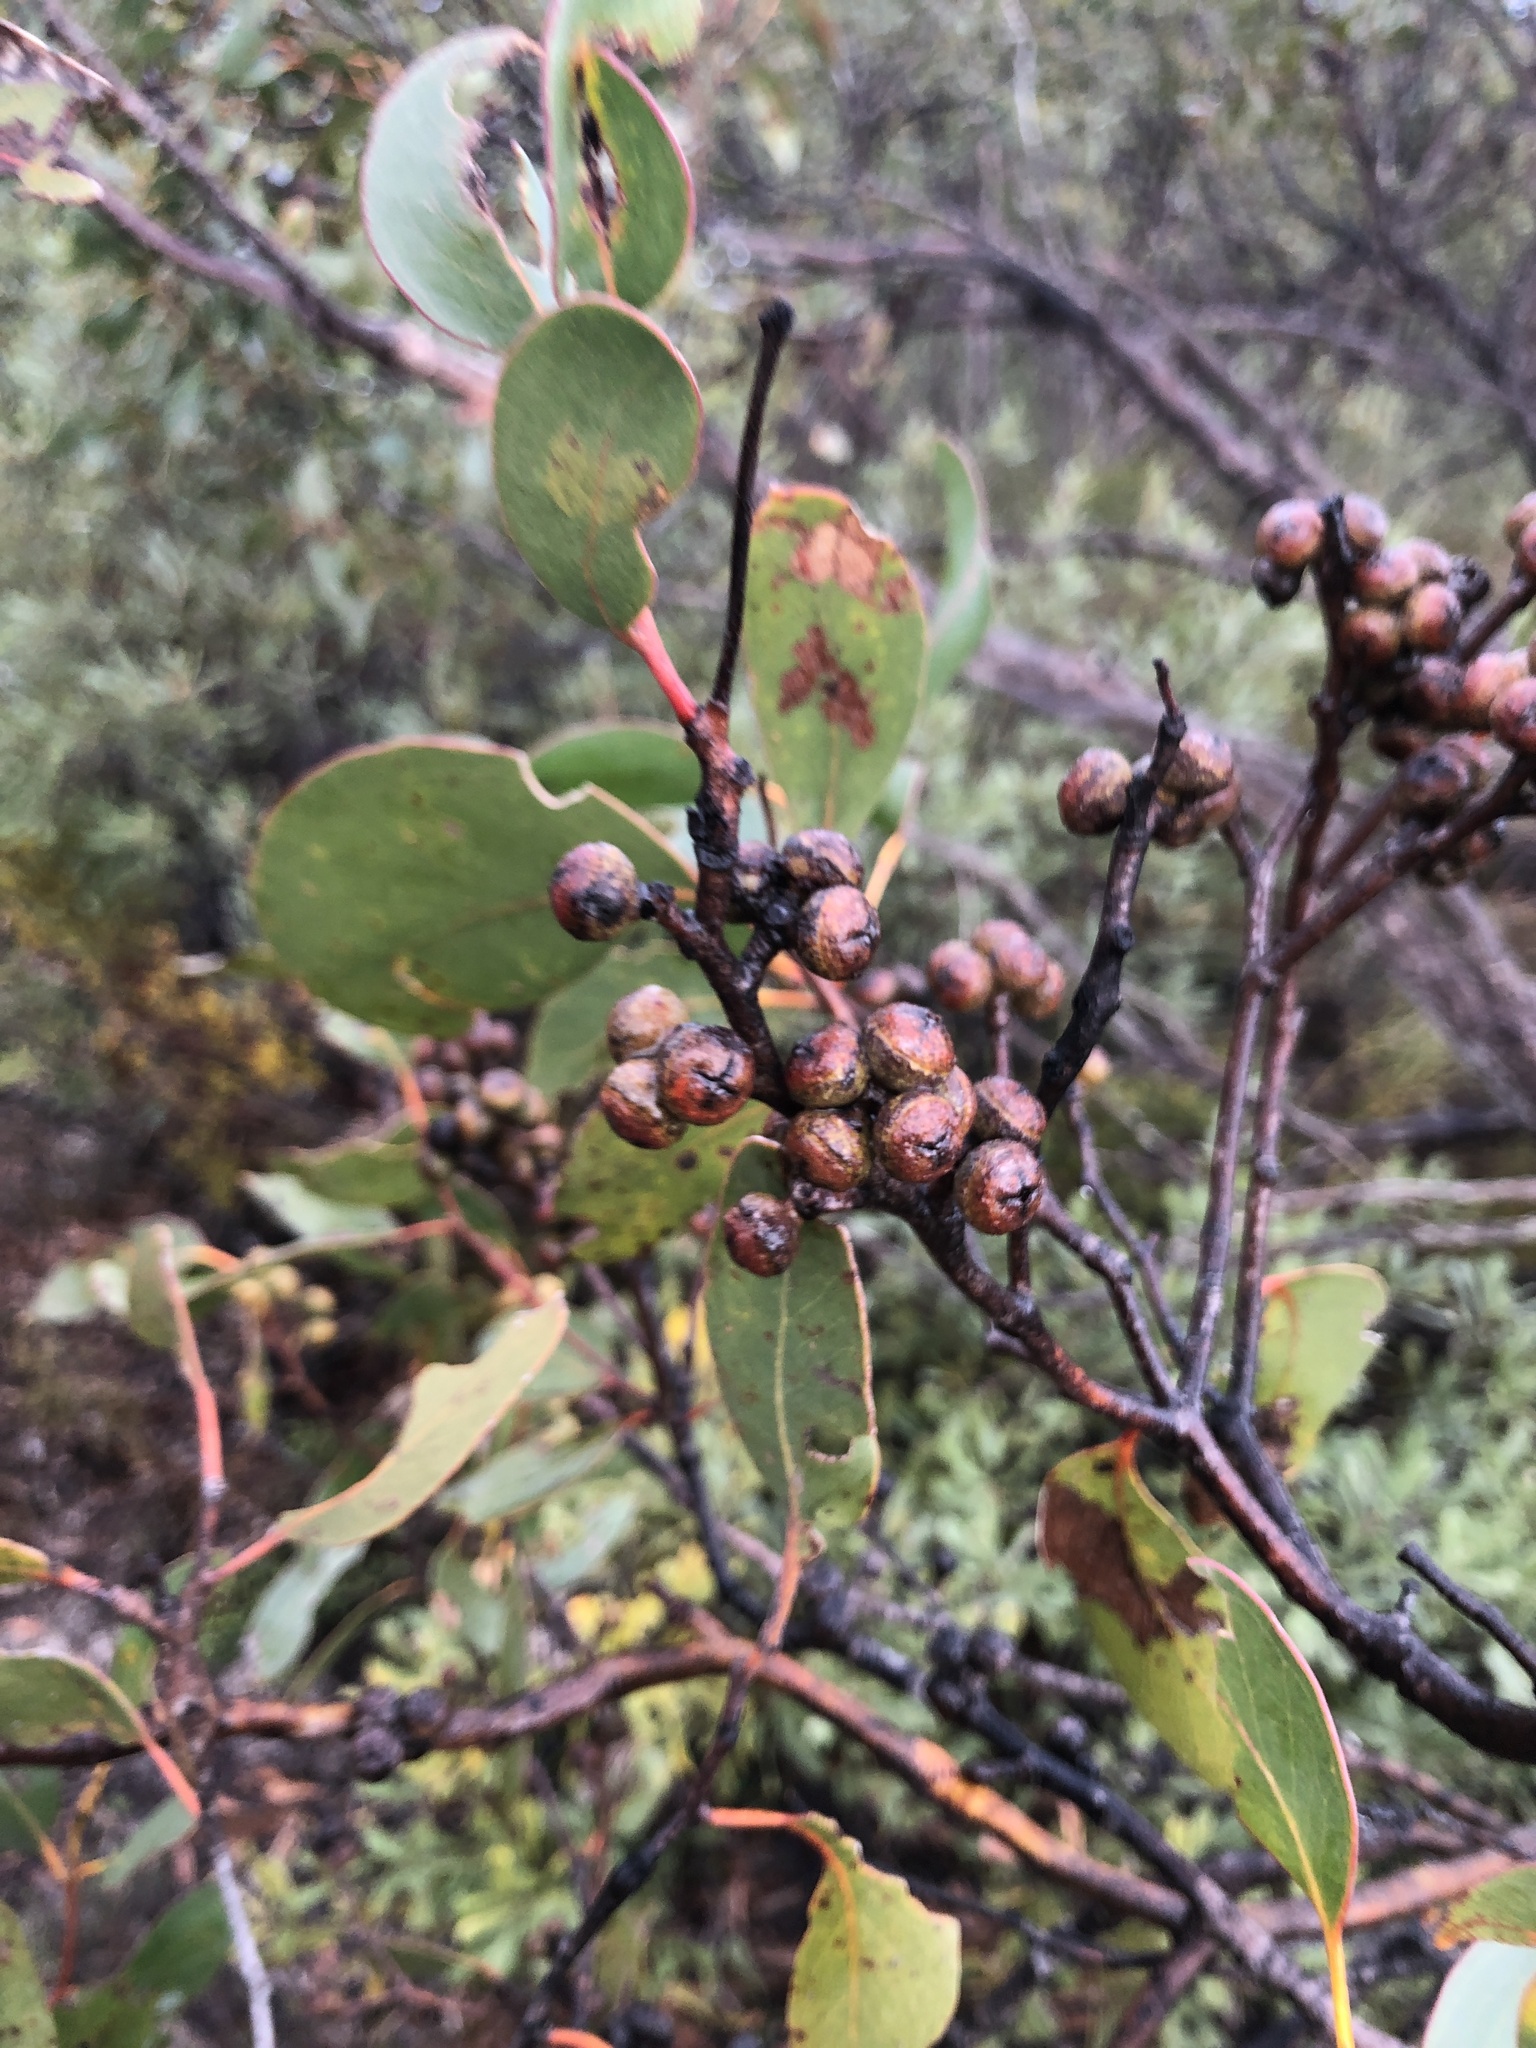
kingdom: Plantae
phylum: Tracheophyta
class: Magnoliopsida
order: Myrtales
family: Myrtaceae
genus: Eucalyptus
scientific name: Eucalyptus baxteri
